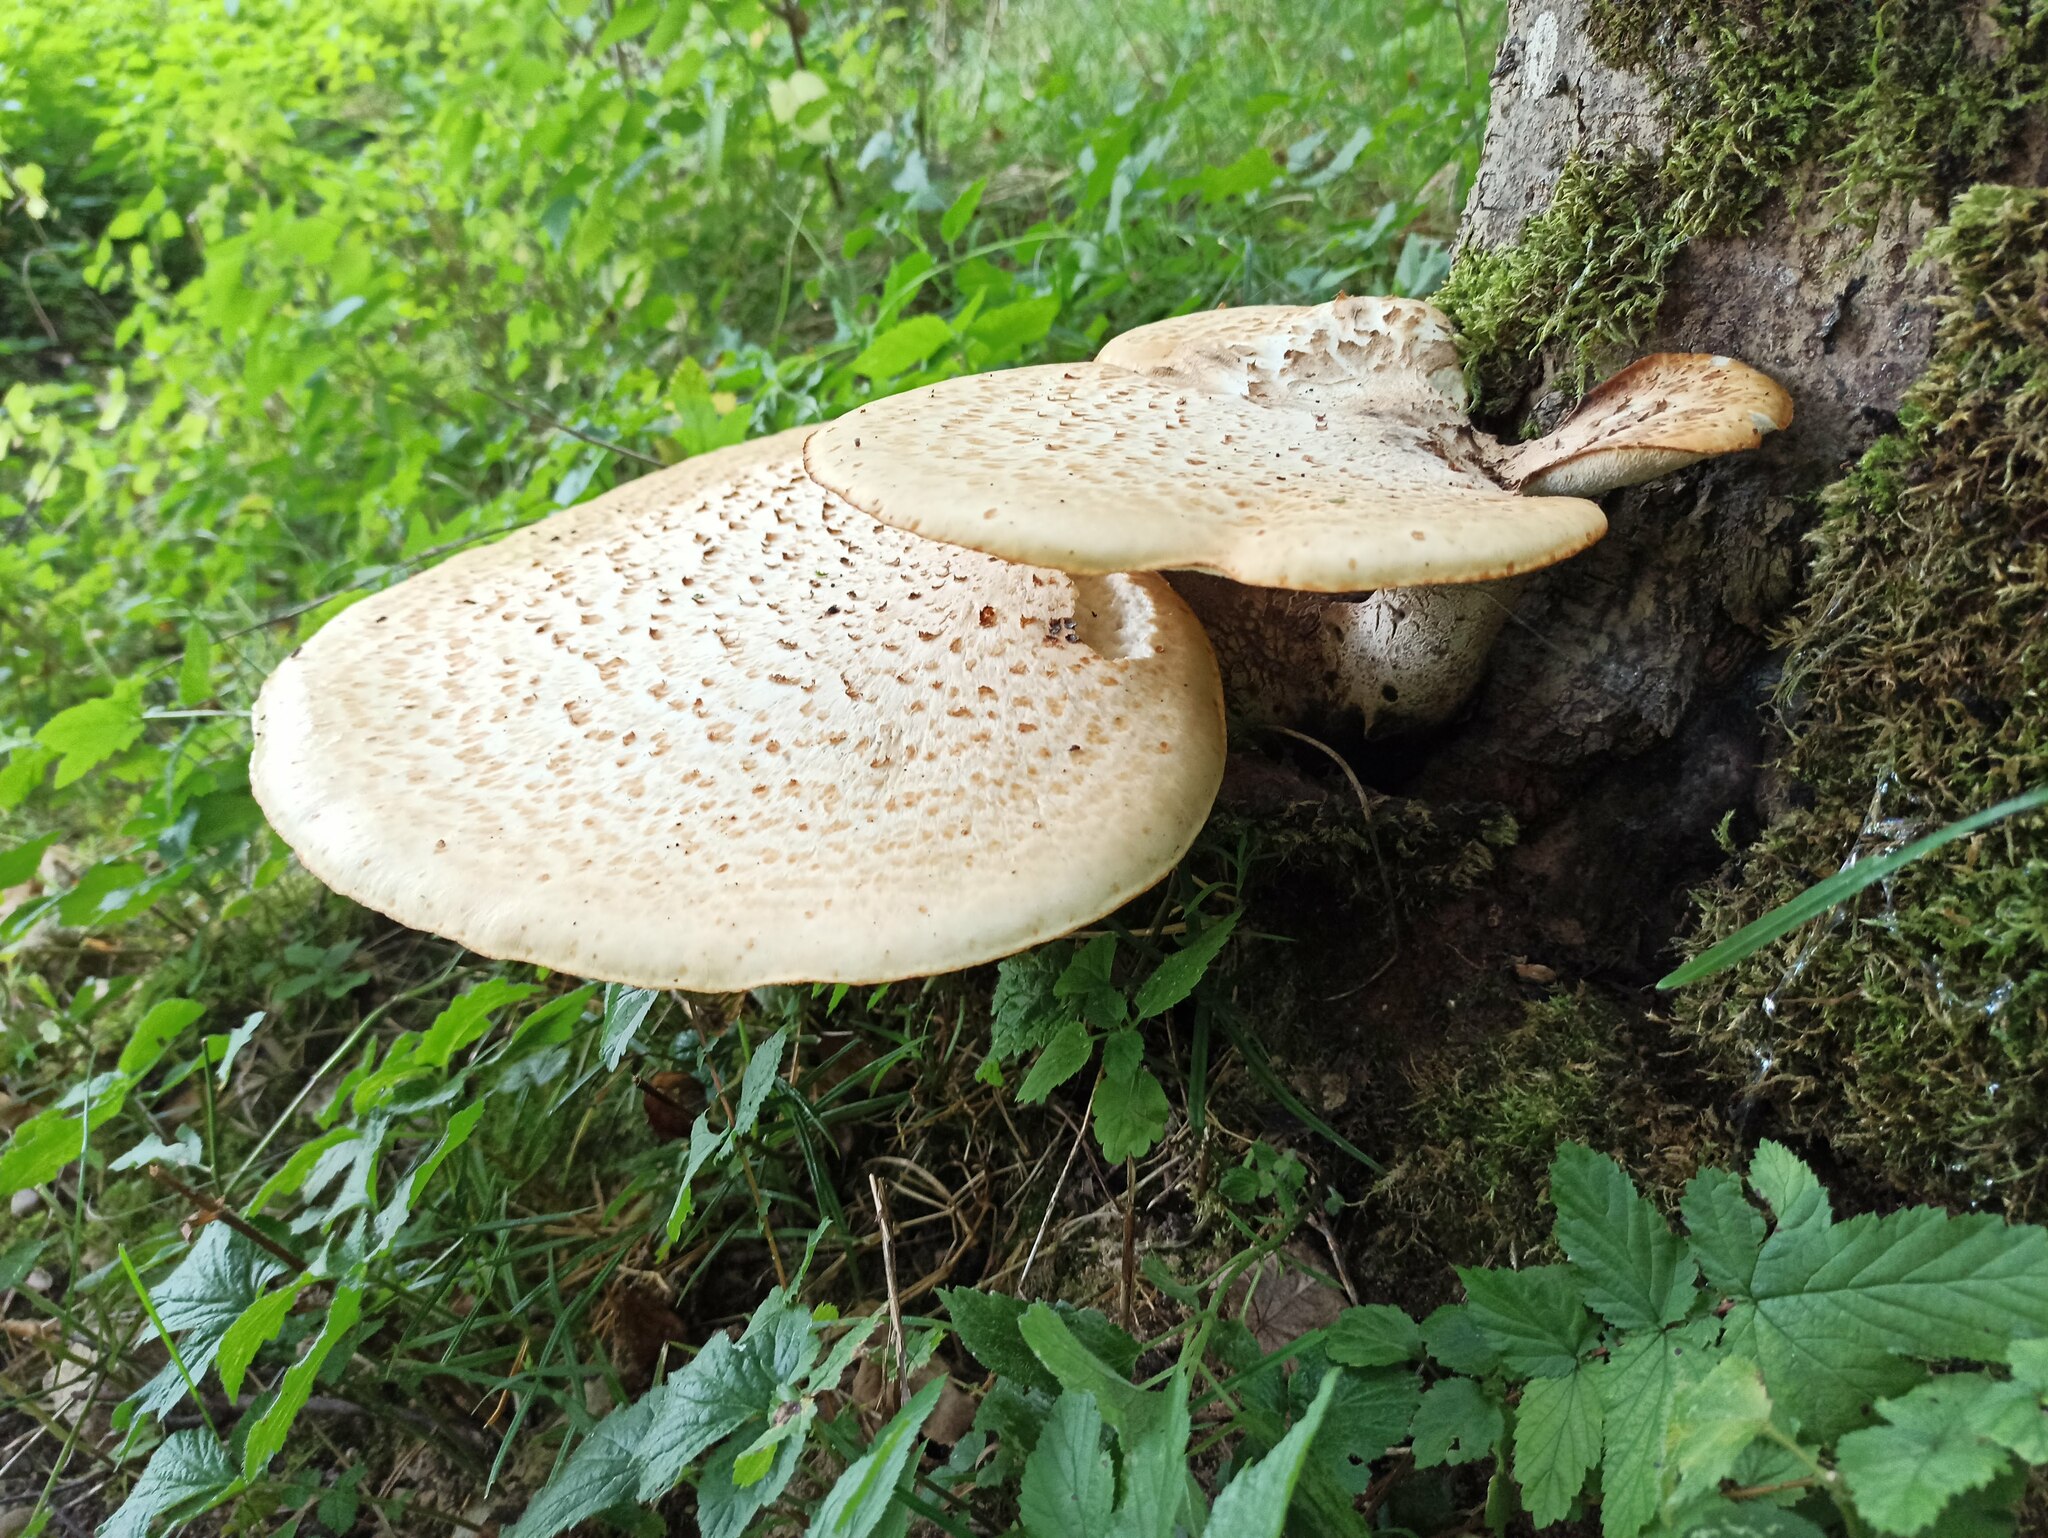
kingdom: Fungi
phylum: Basidiomycota
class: Agaricomycetes
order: Polyporales
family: Polyporaceae
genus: Cerioporus
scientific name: Cerioporus squamosus
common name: Dryad's saddle
